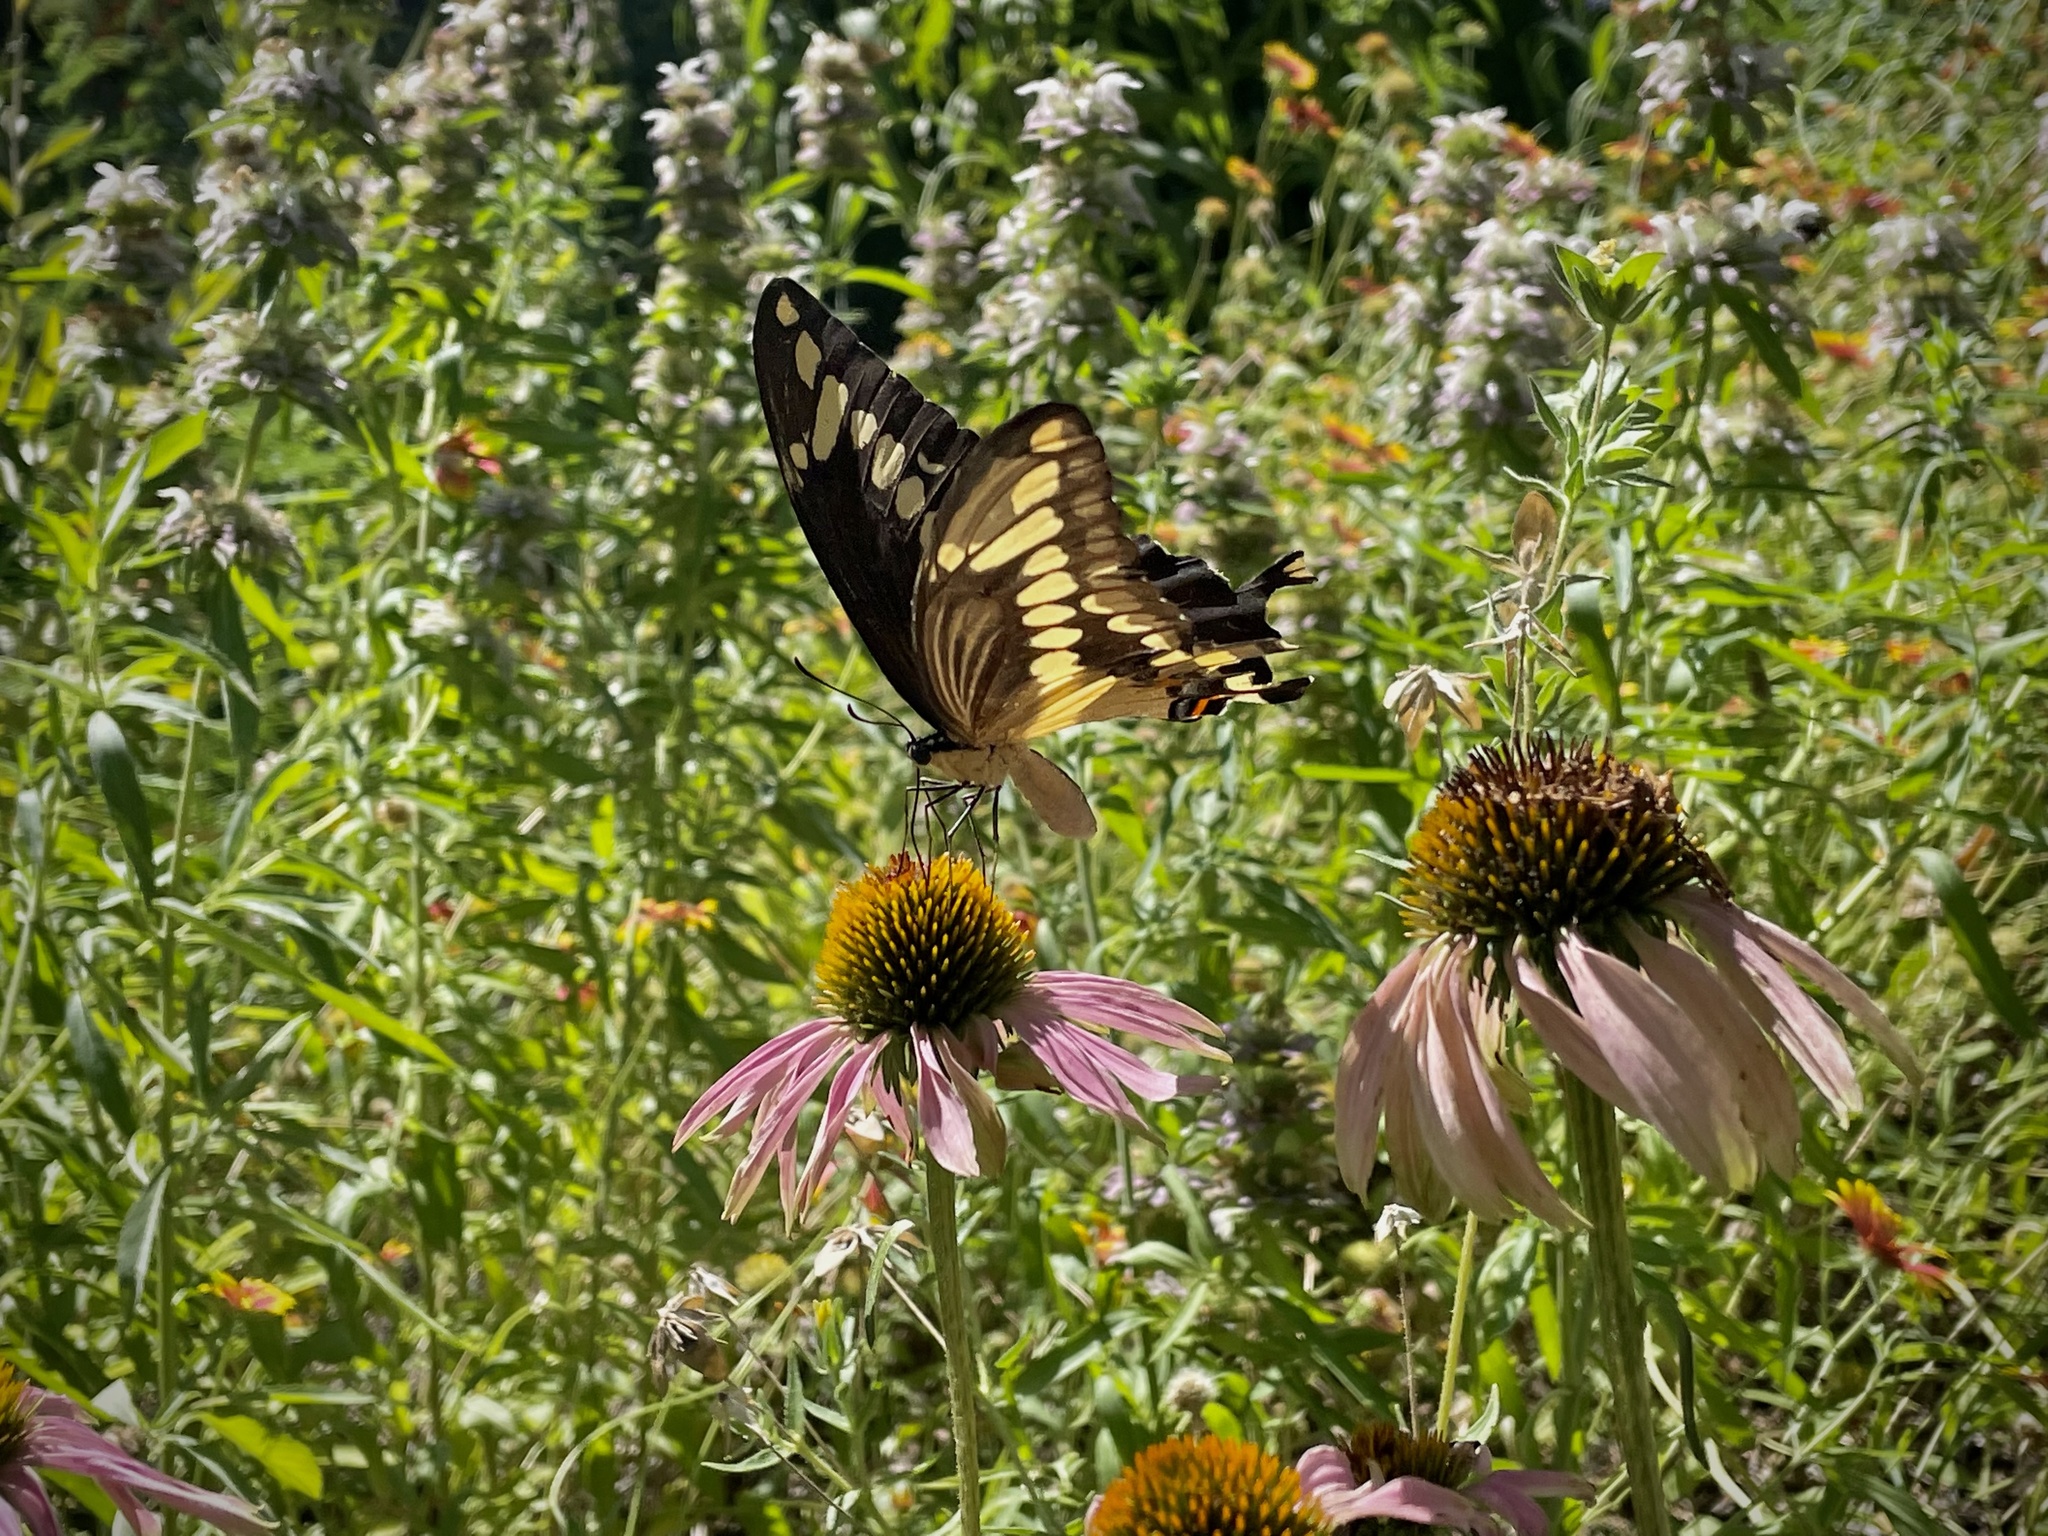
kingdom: Animalia
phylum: Arthropoda
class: Insecta
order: Lepidoptera
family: Papilionidae
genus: Papilio
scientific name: Papilio cresphontes
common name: Giant swallowtail
